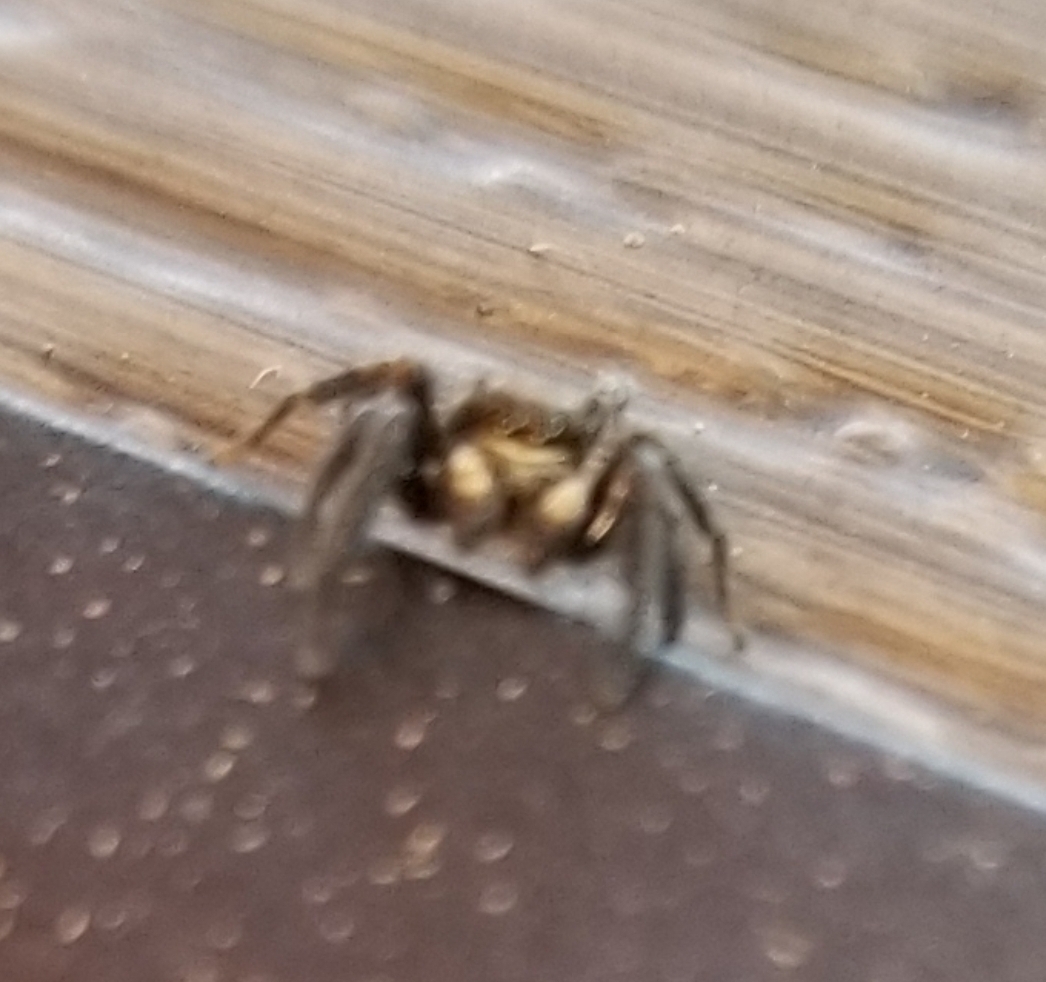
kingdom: Animalia
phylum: Arthropoda
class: Arachnida
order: Araneae
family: Salticidae
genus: Pseudeuophrys
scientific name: Pseudeuophrys erratica
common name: Jumping spider
